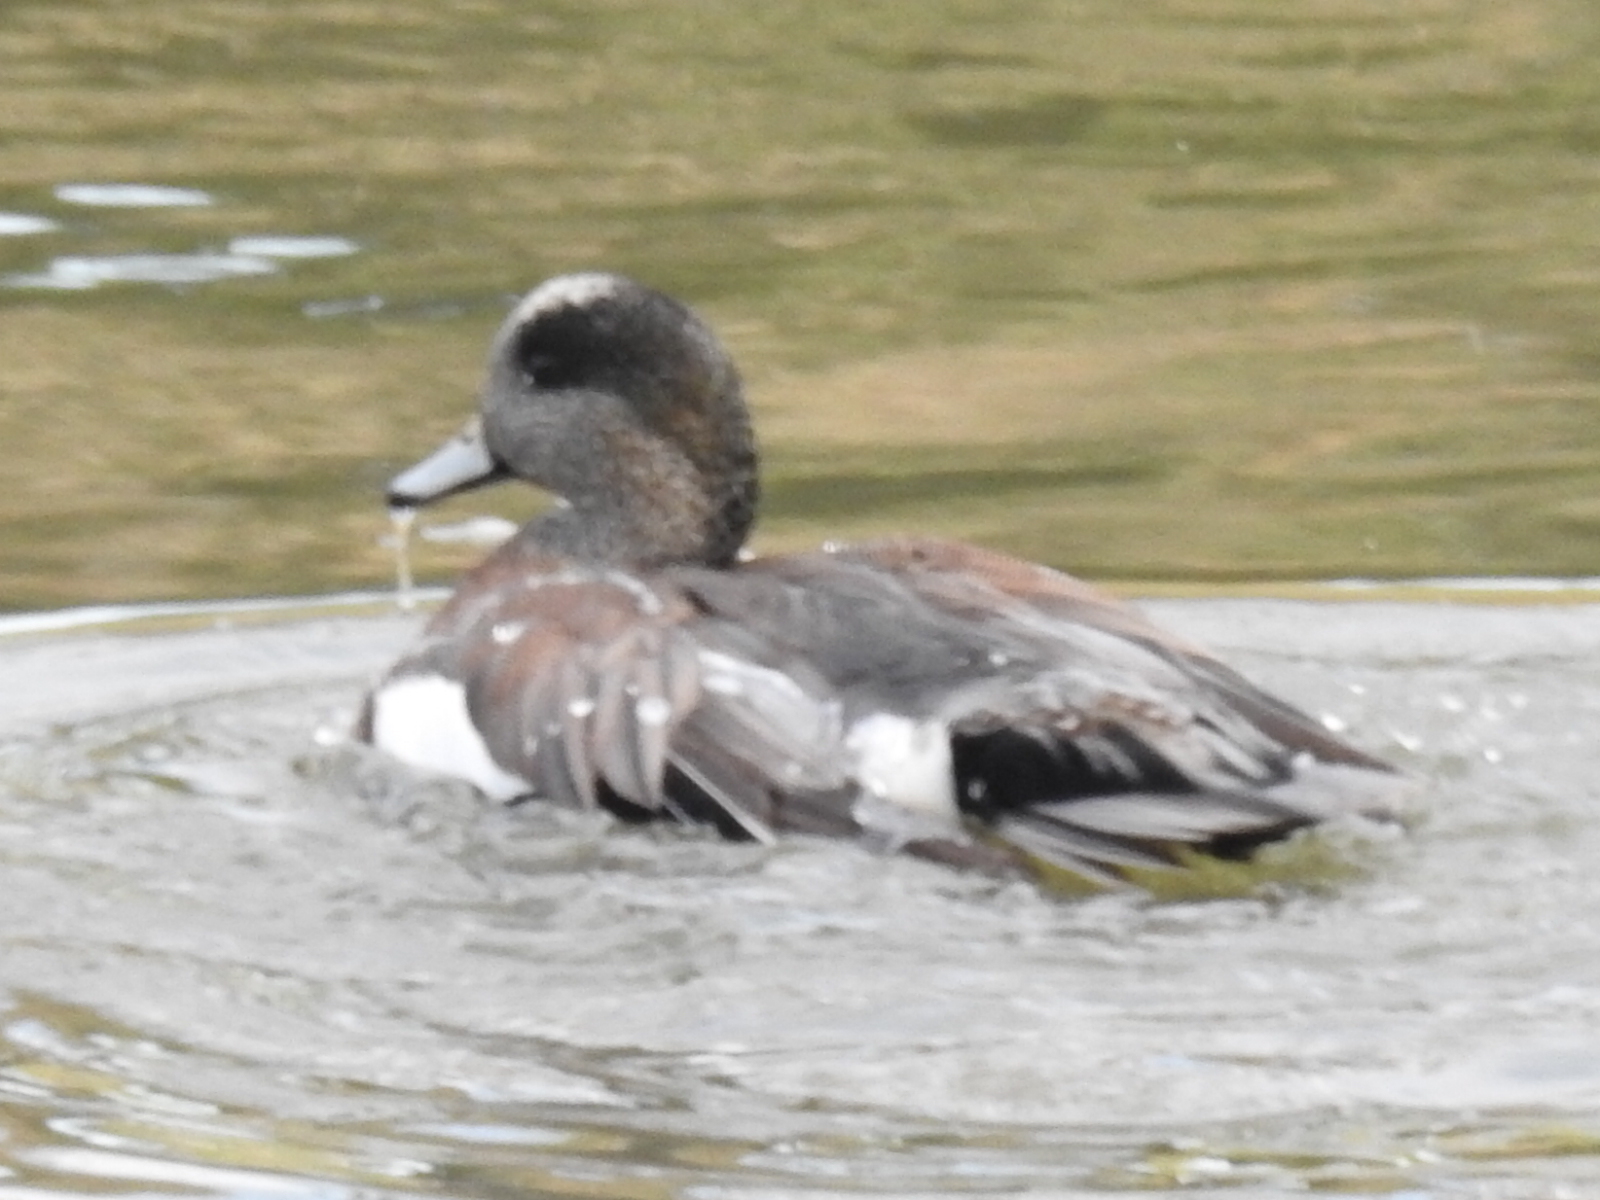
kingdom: Animalia
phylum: Chordata
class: Aves
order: Anseriformes
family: Anatidae
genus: Mareca
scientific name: Mareca americana
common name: American wigeon
